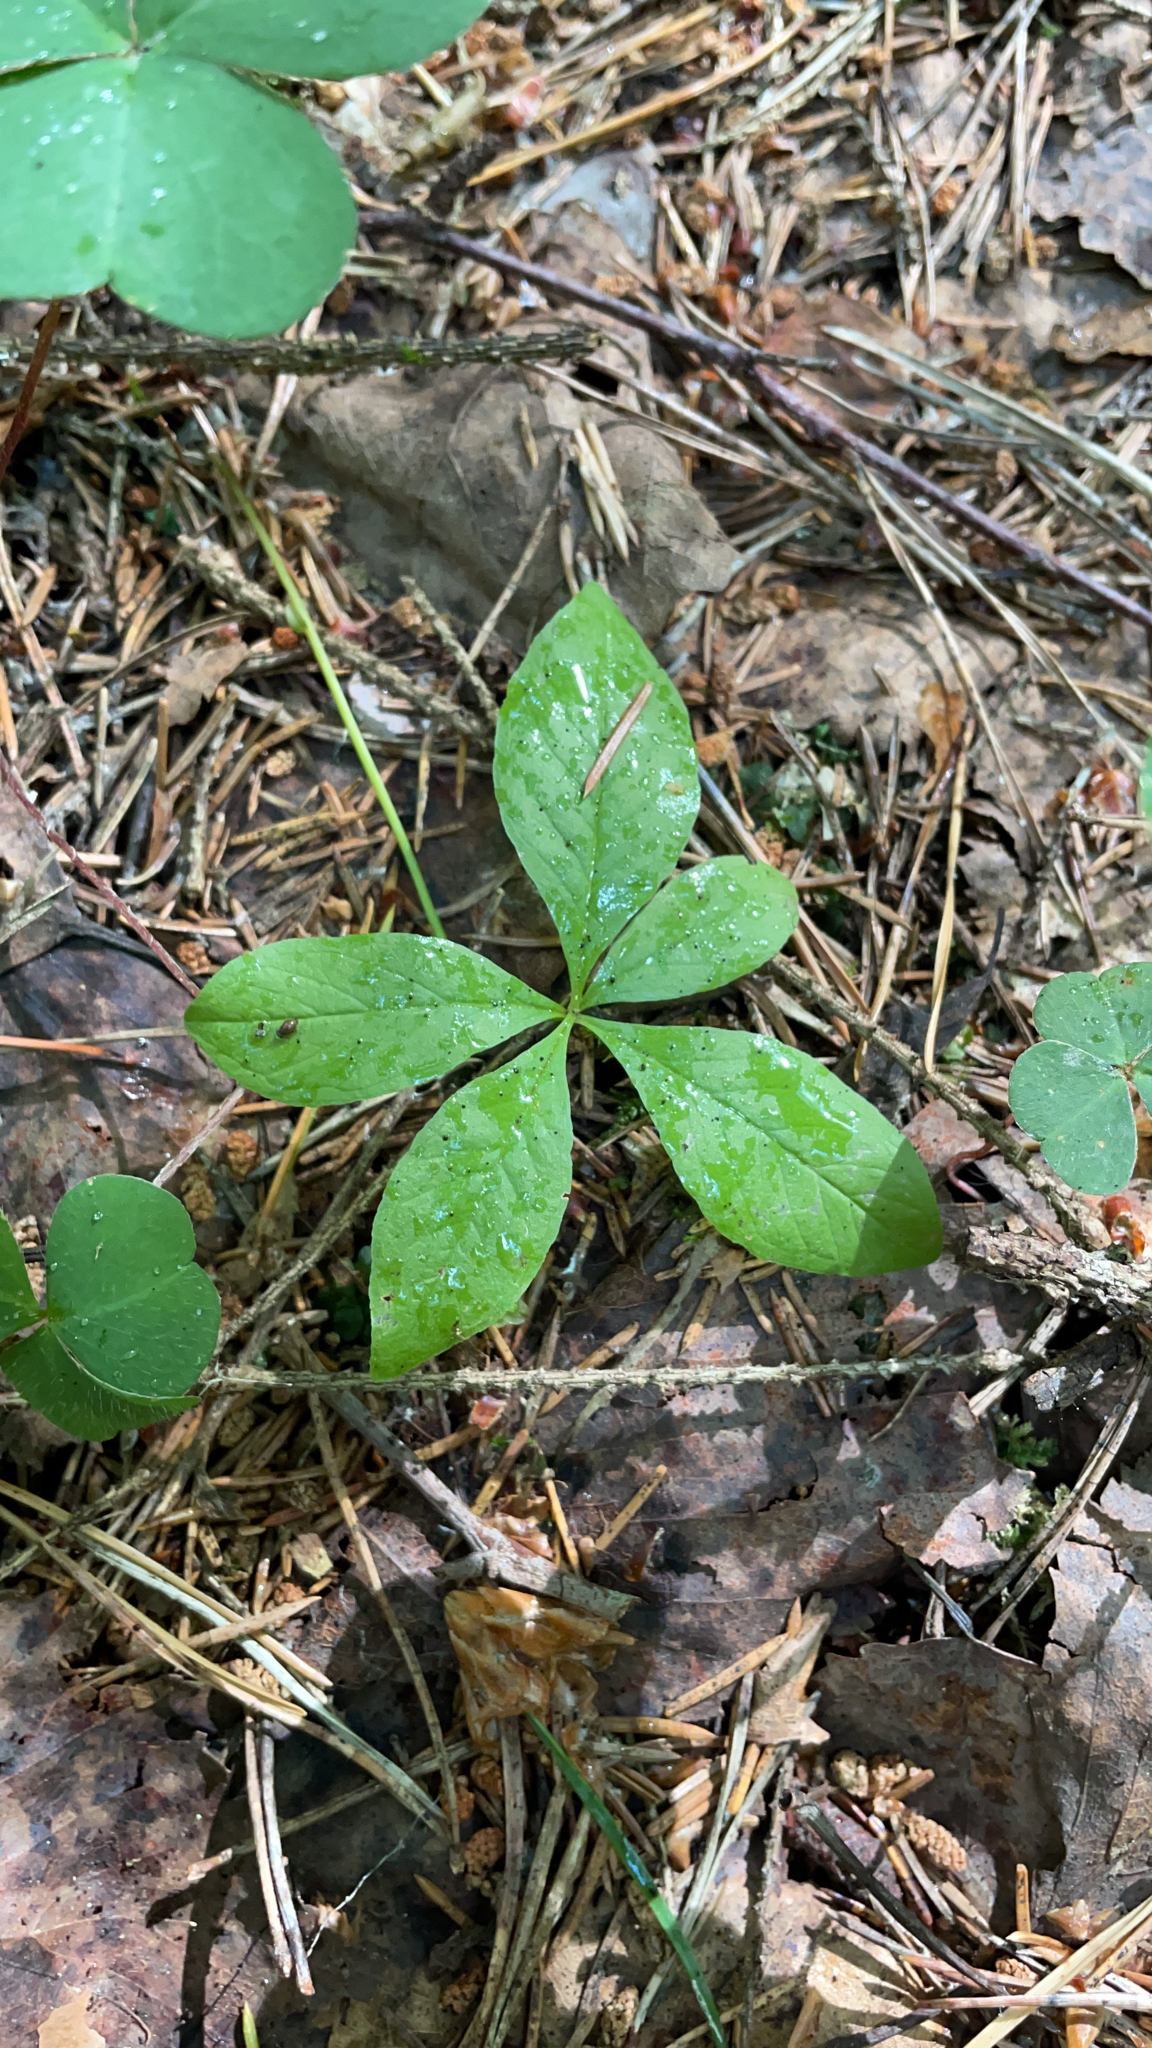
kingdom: Plantae
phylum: Tracheophyta
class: Magnoliopsida
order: Ericales
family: Primulaceae
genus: Lysimachia
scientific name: Lysimachia europaea
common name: Arctic starflower
